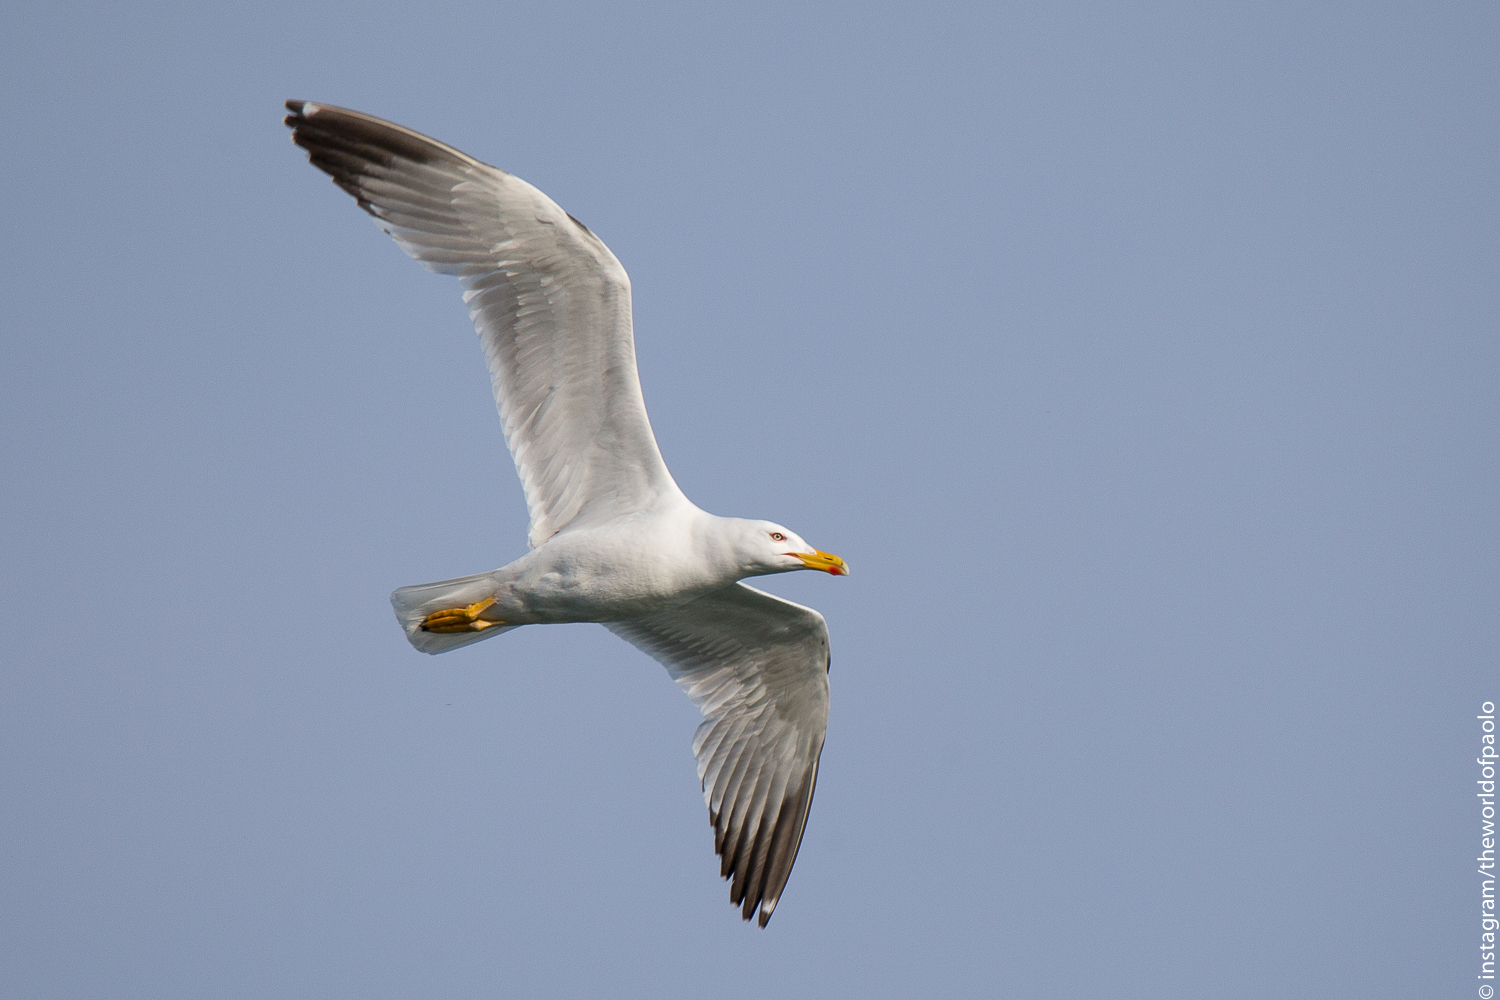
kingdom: Animalia
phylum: Chordata
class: Aves
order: Charadriiformes
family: Laridae
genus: Larus
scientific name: Larus michahellis
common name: Yellow-legged gull
